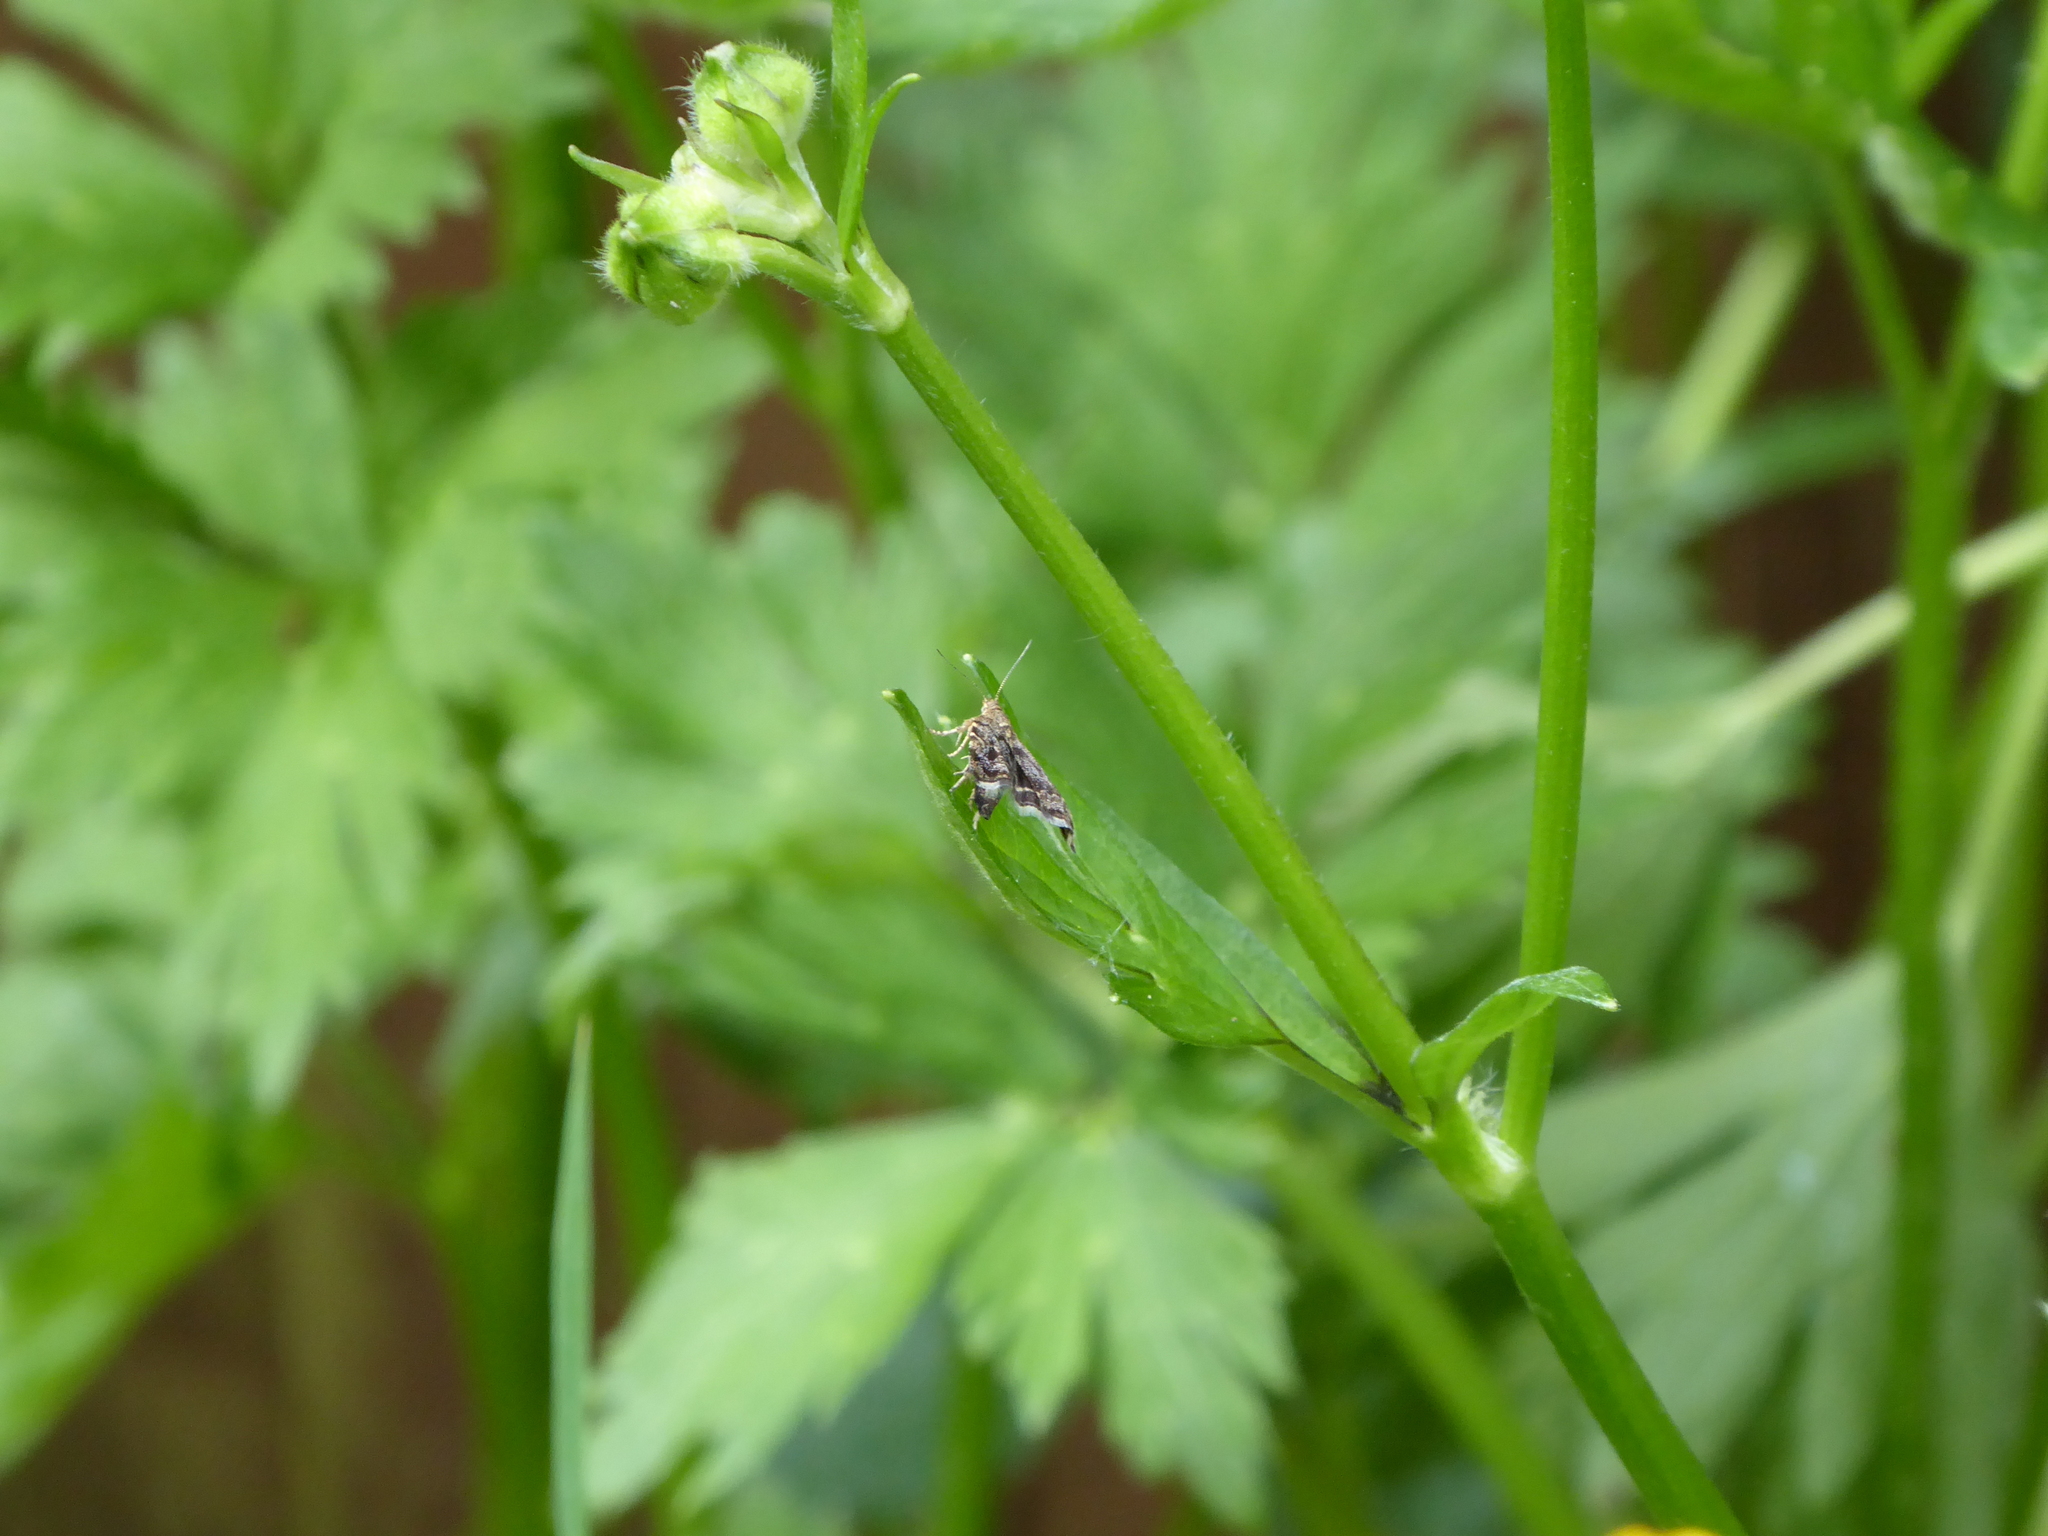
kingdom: Animalia
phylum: Arthropoda
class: Insecta
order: Lepidoptera
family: Choreutidae
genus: Anthophila
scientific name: Anthophila fabriciana
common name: Nettle-tap
